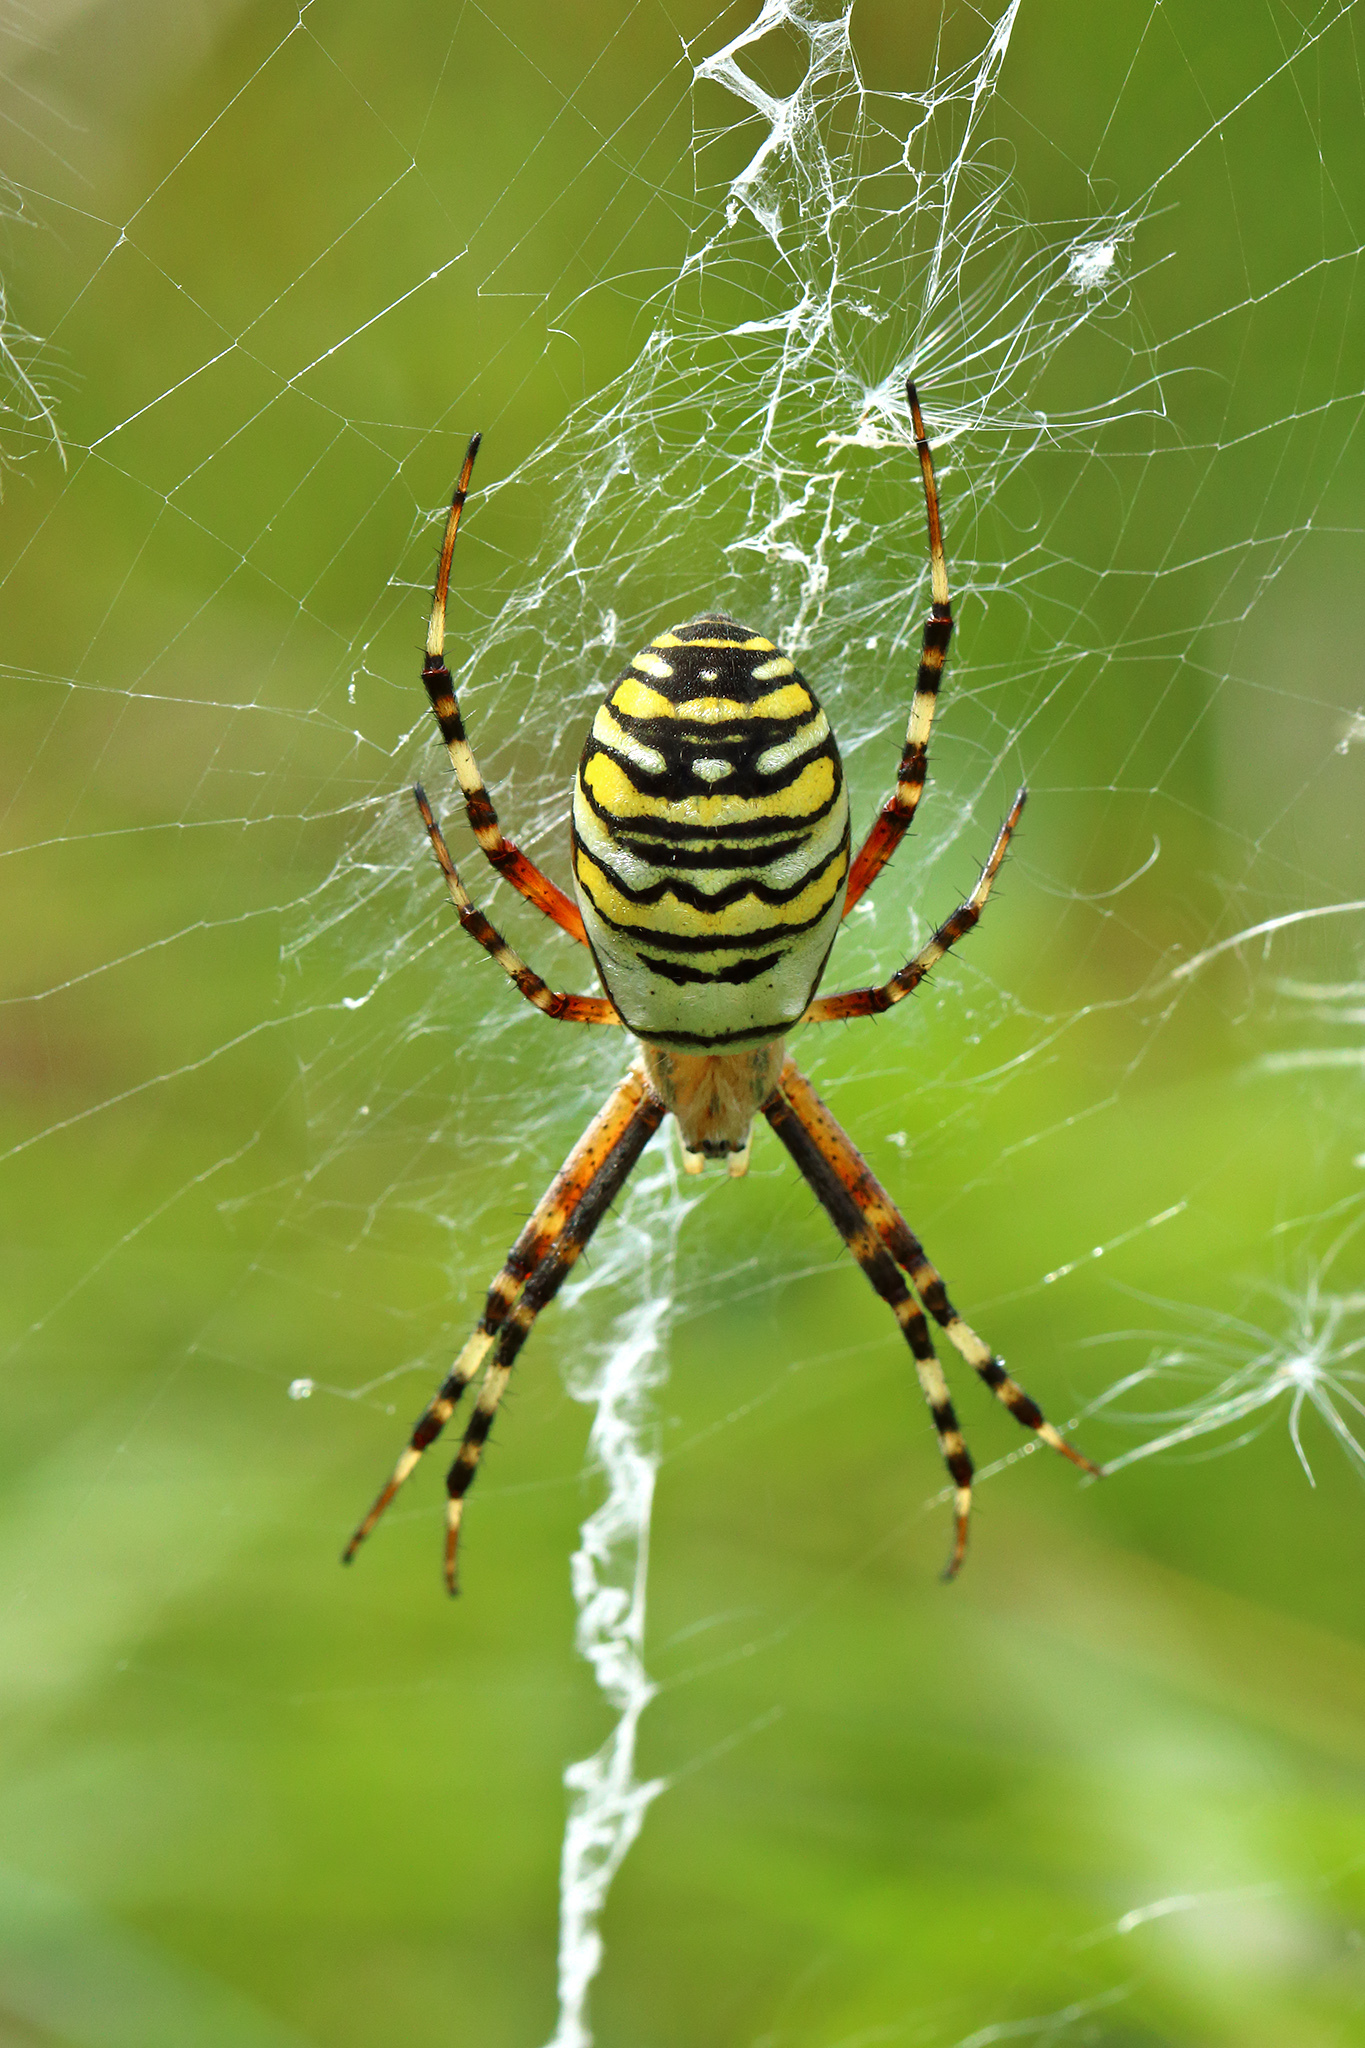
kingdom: Animalia
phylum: Arthropoda
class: Arachnida
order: Araneae
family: Araneidae
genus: Argiope
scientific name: Argiope bruennichi
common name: Wasp spider
